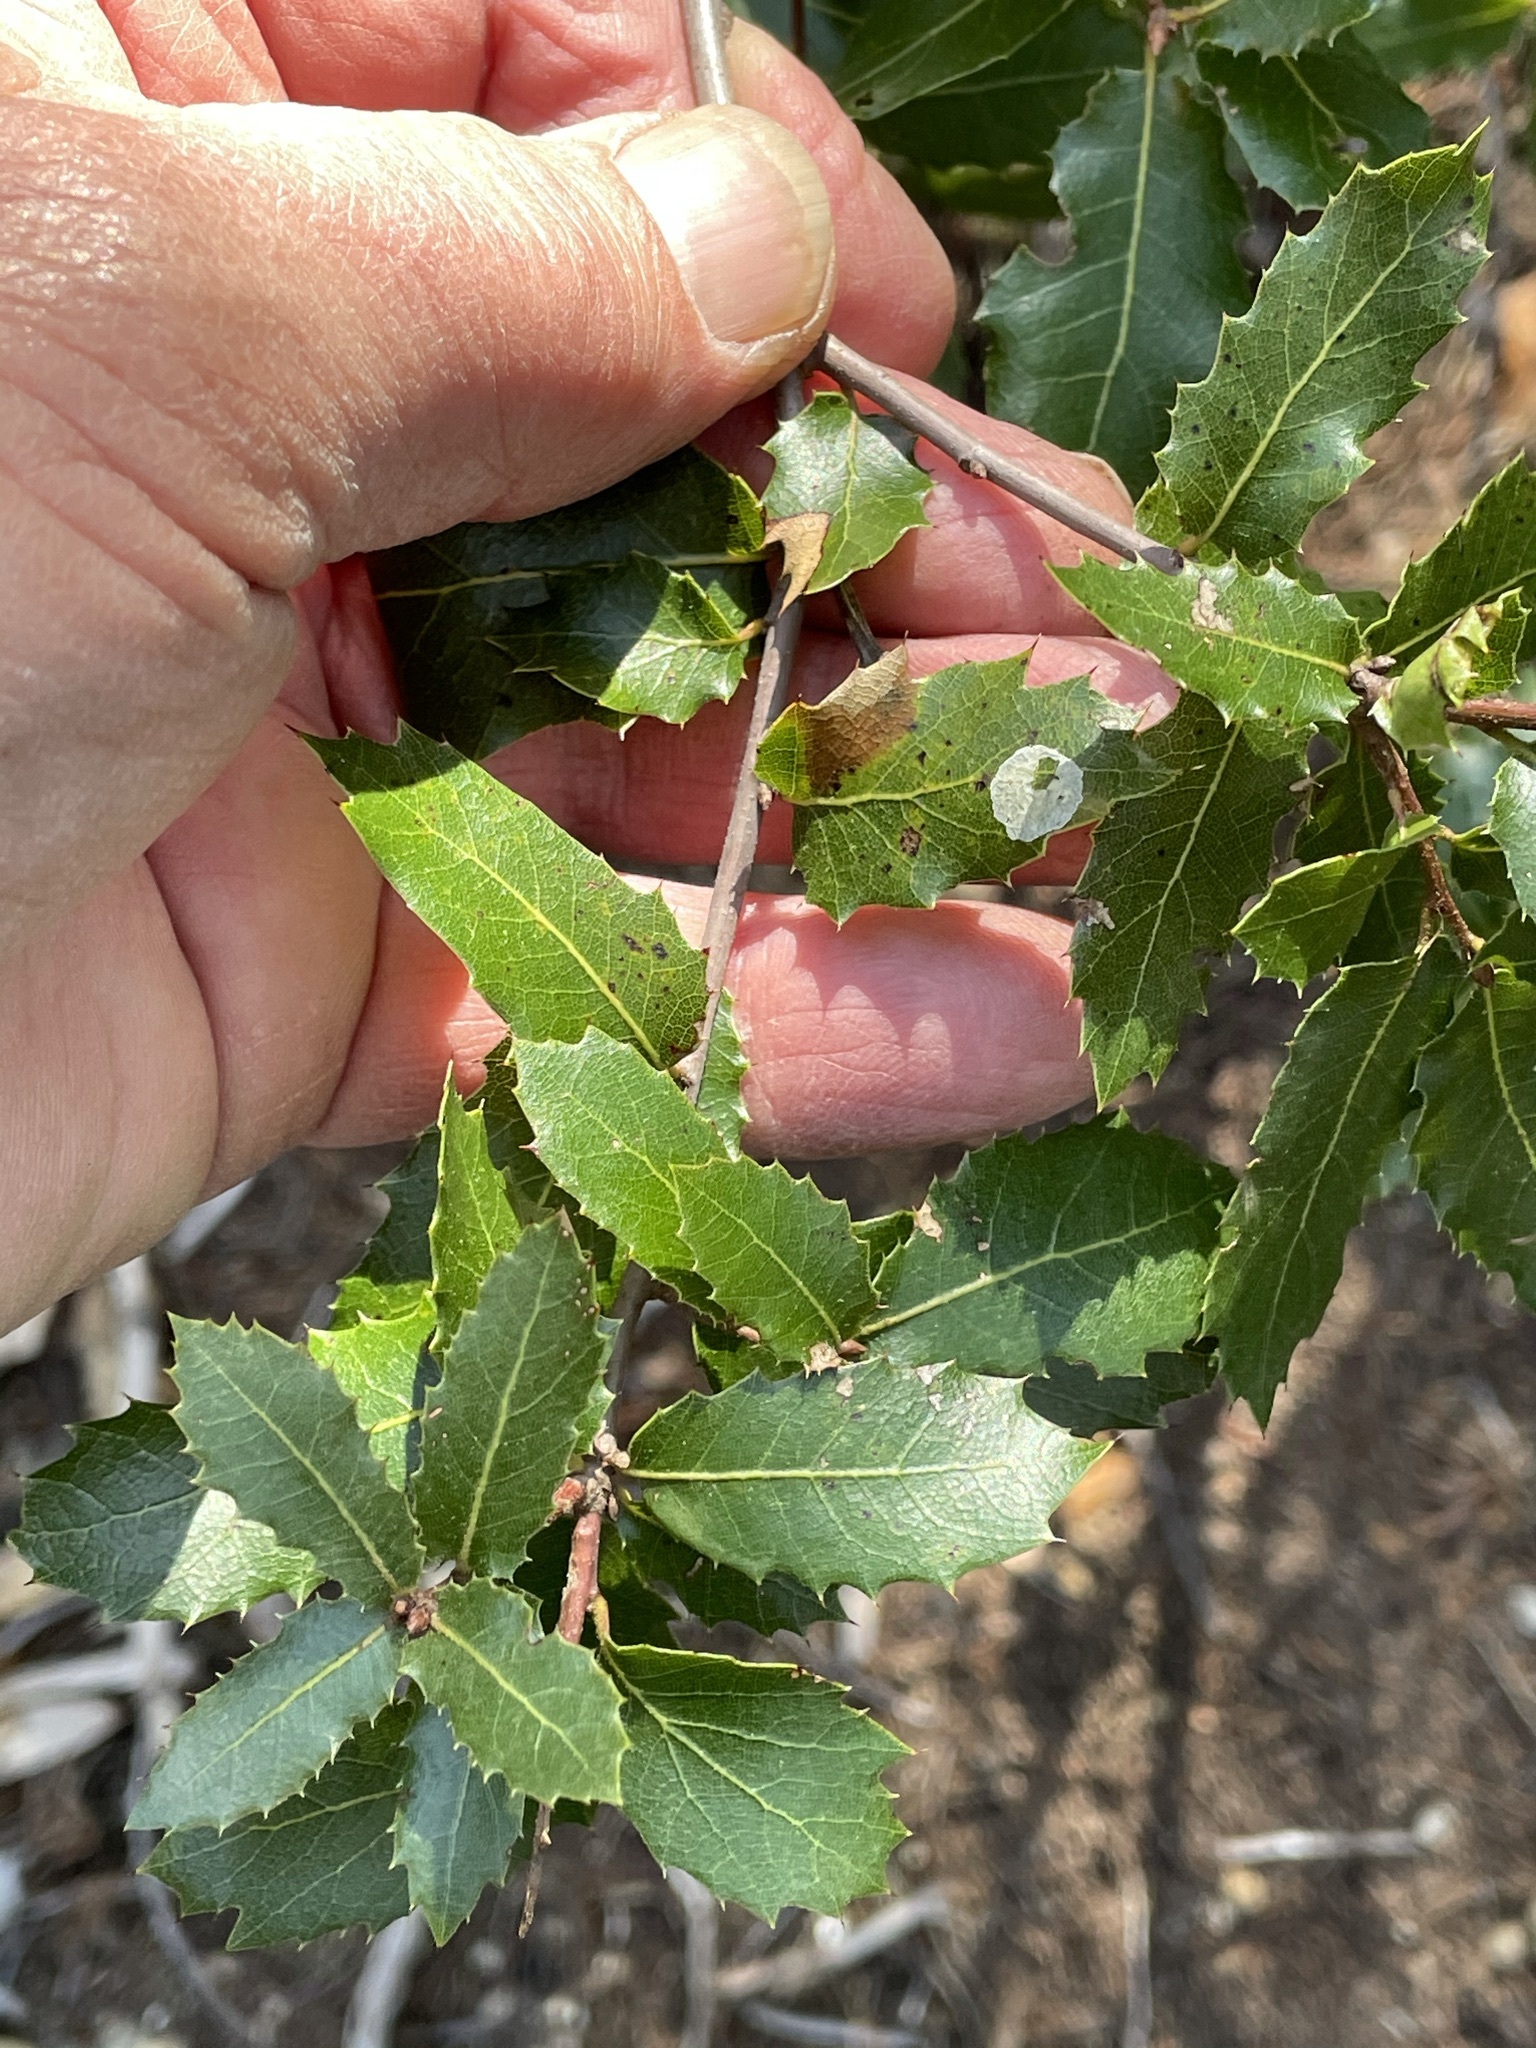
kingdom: Plantae
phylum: Tracheophyta
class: Magnoliopsida
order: Fagales
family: Fagaceae
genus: Quercus
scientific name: Quercus wislizeni
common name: Interior live oak
